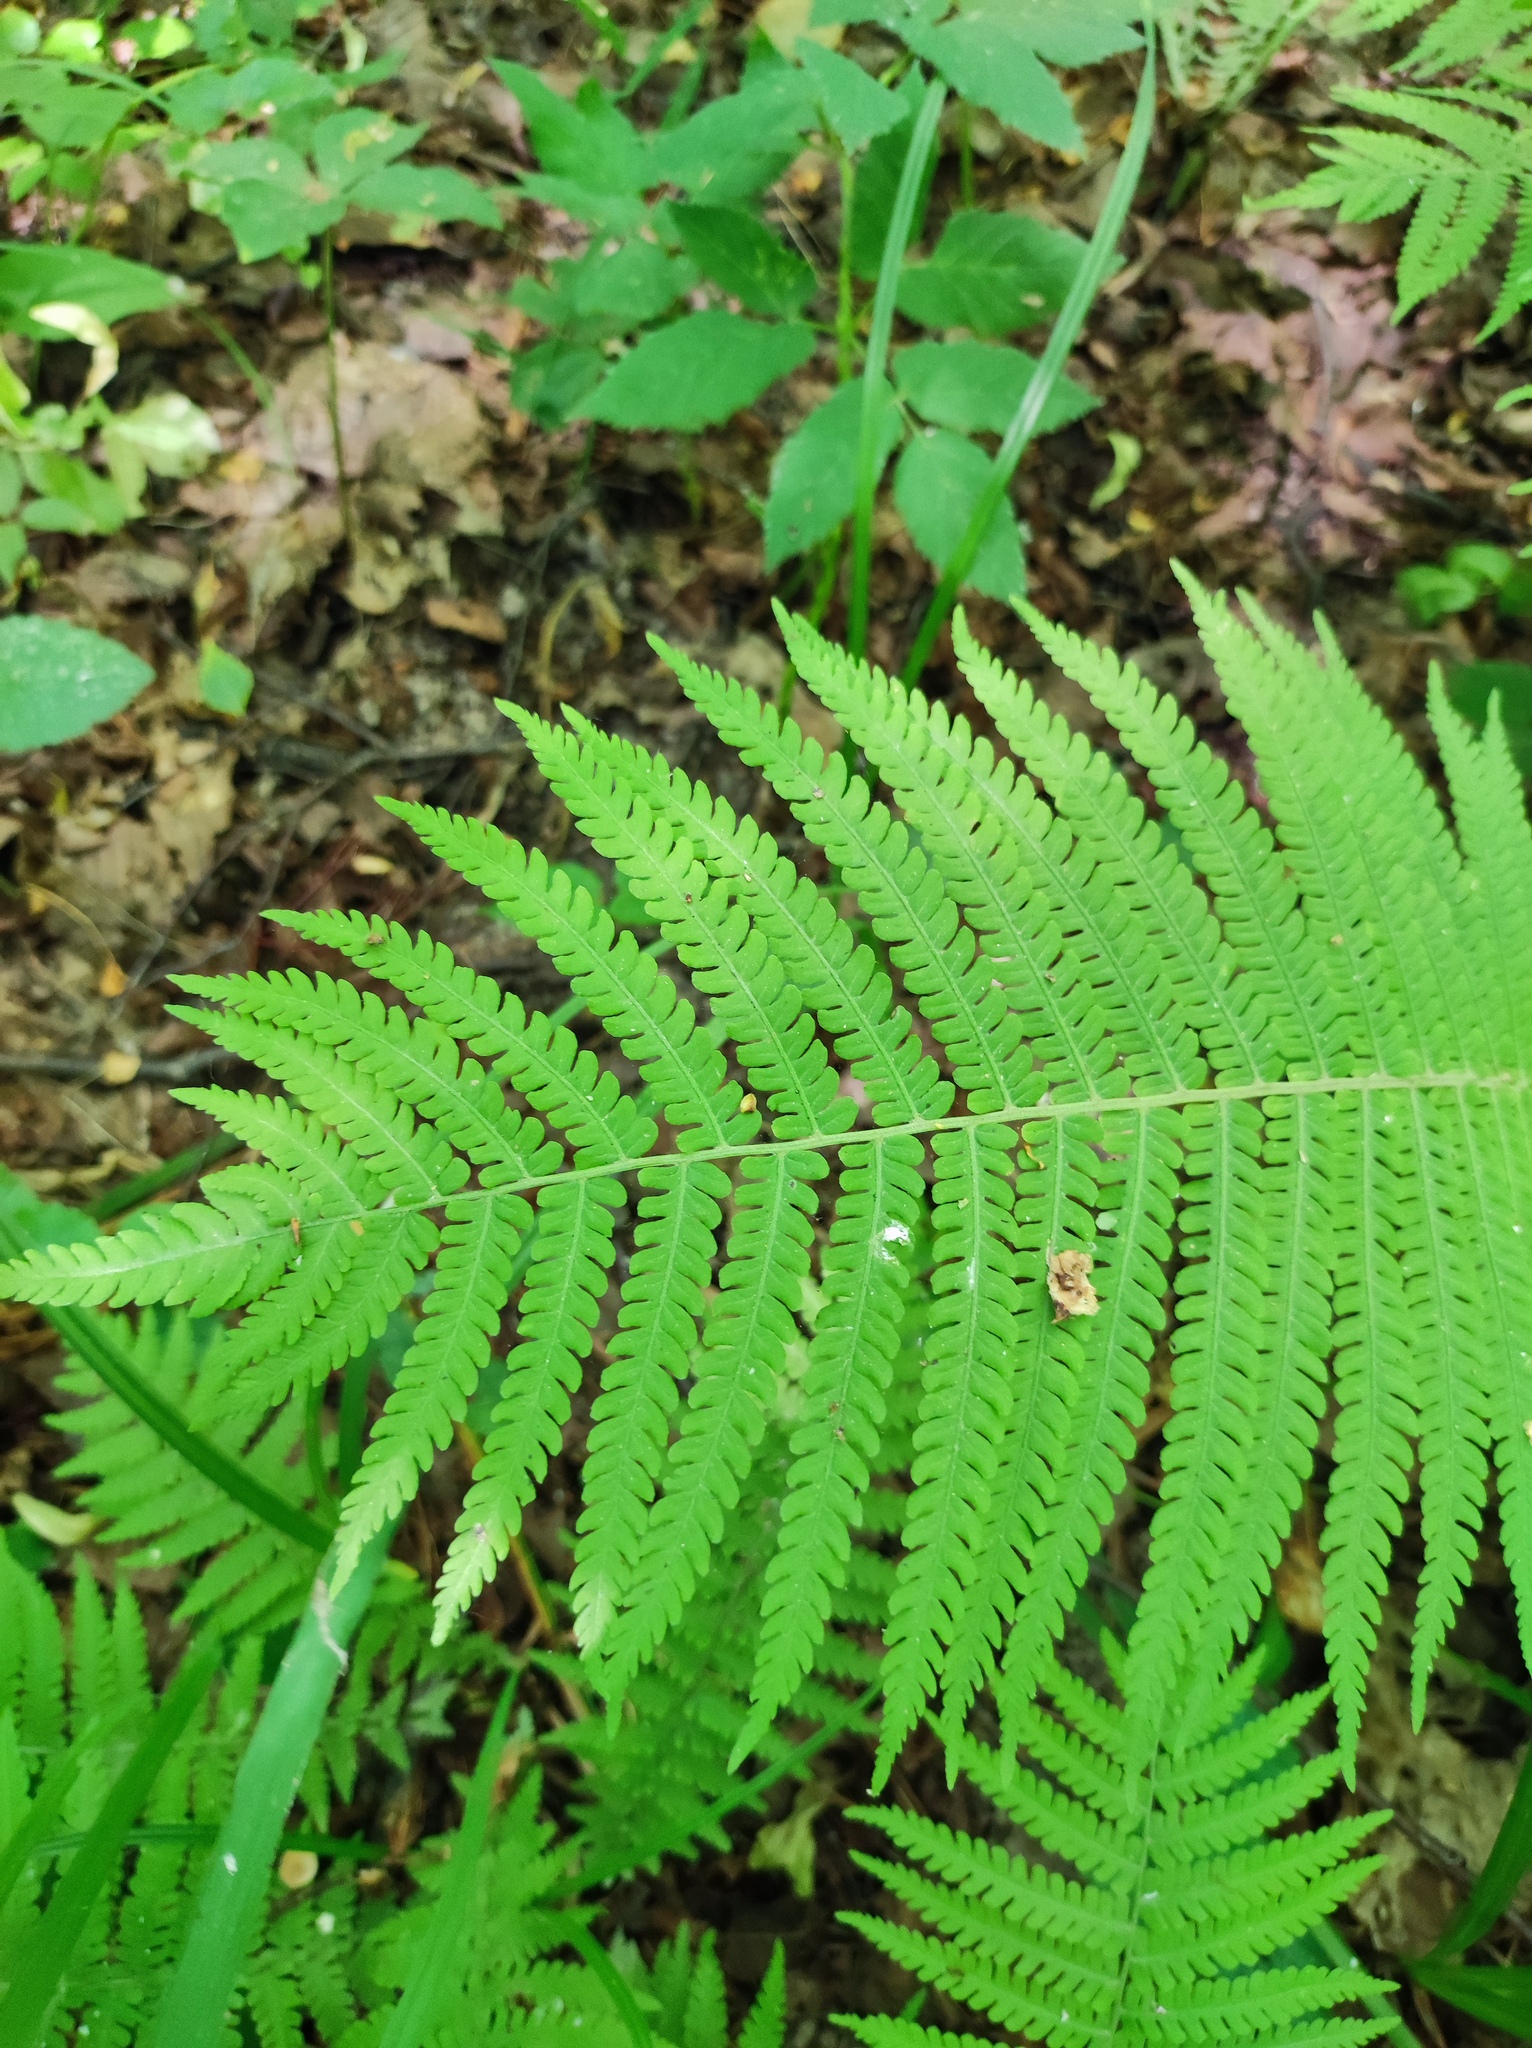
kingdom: Plantae
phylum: Tracheophyta
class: Polypodiopsida
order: Polypodiales
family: Onocleaceae
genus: Matteuccia
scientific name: Matteuccia struthiopteris
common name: Ostrich fern
